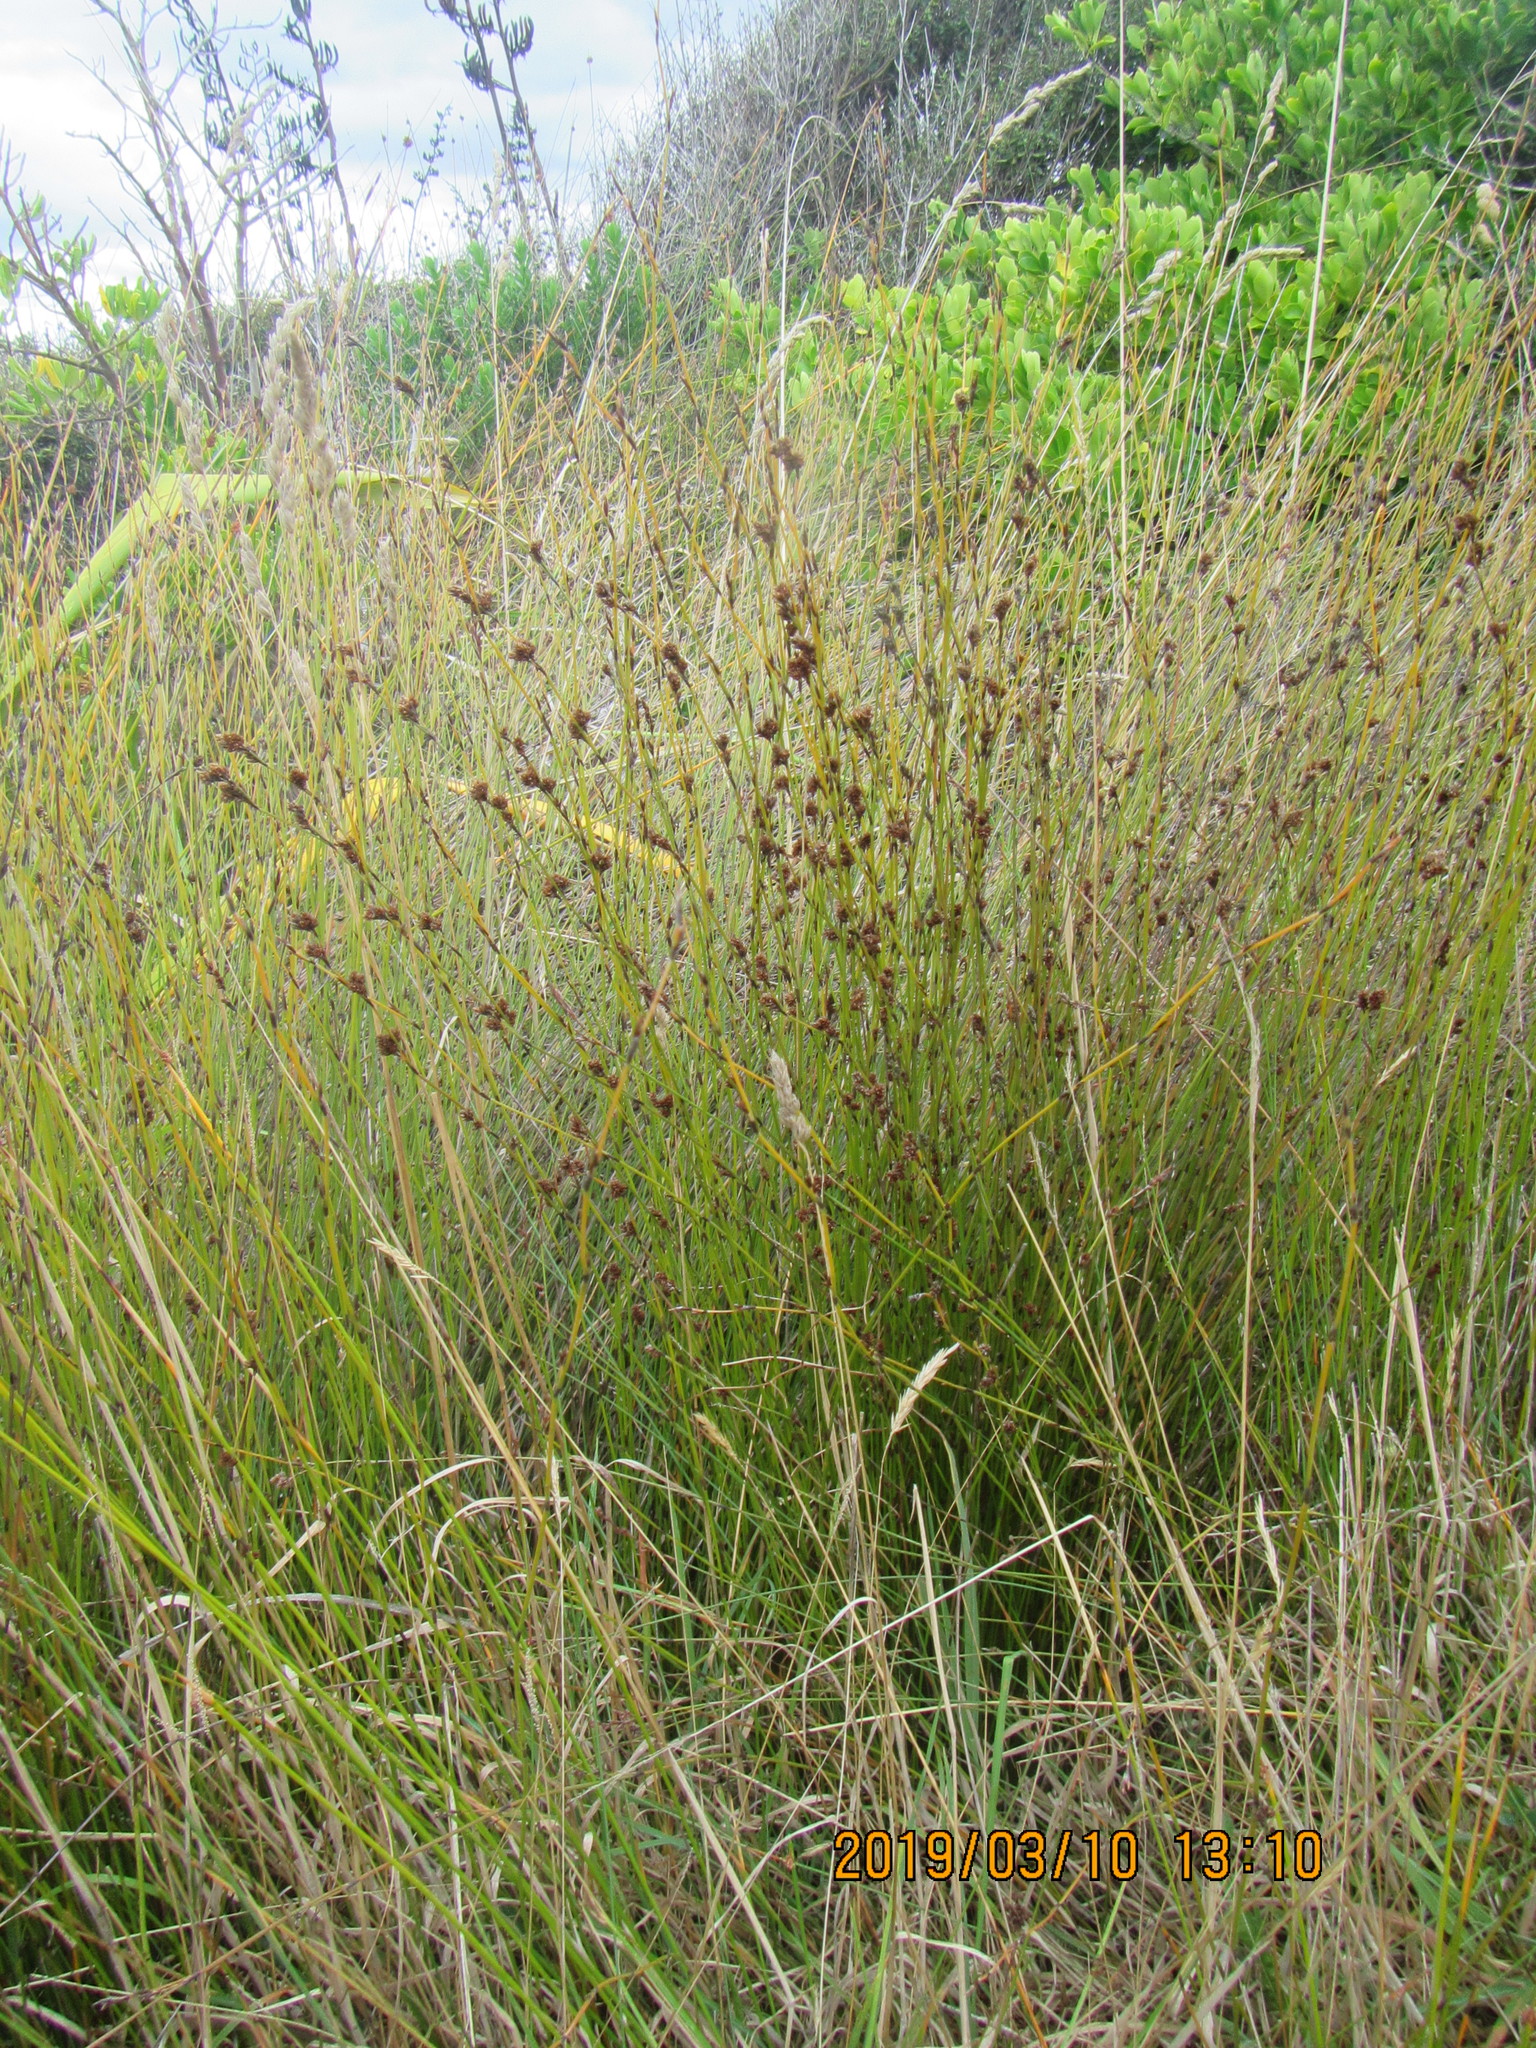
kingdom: Plantae
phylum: Tracheophyta
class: Liliopsida
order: Poales
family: Restionaceae
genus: Apodasmia
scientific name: Apodasmia similis
